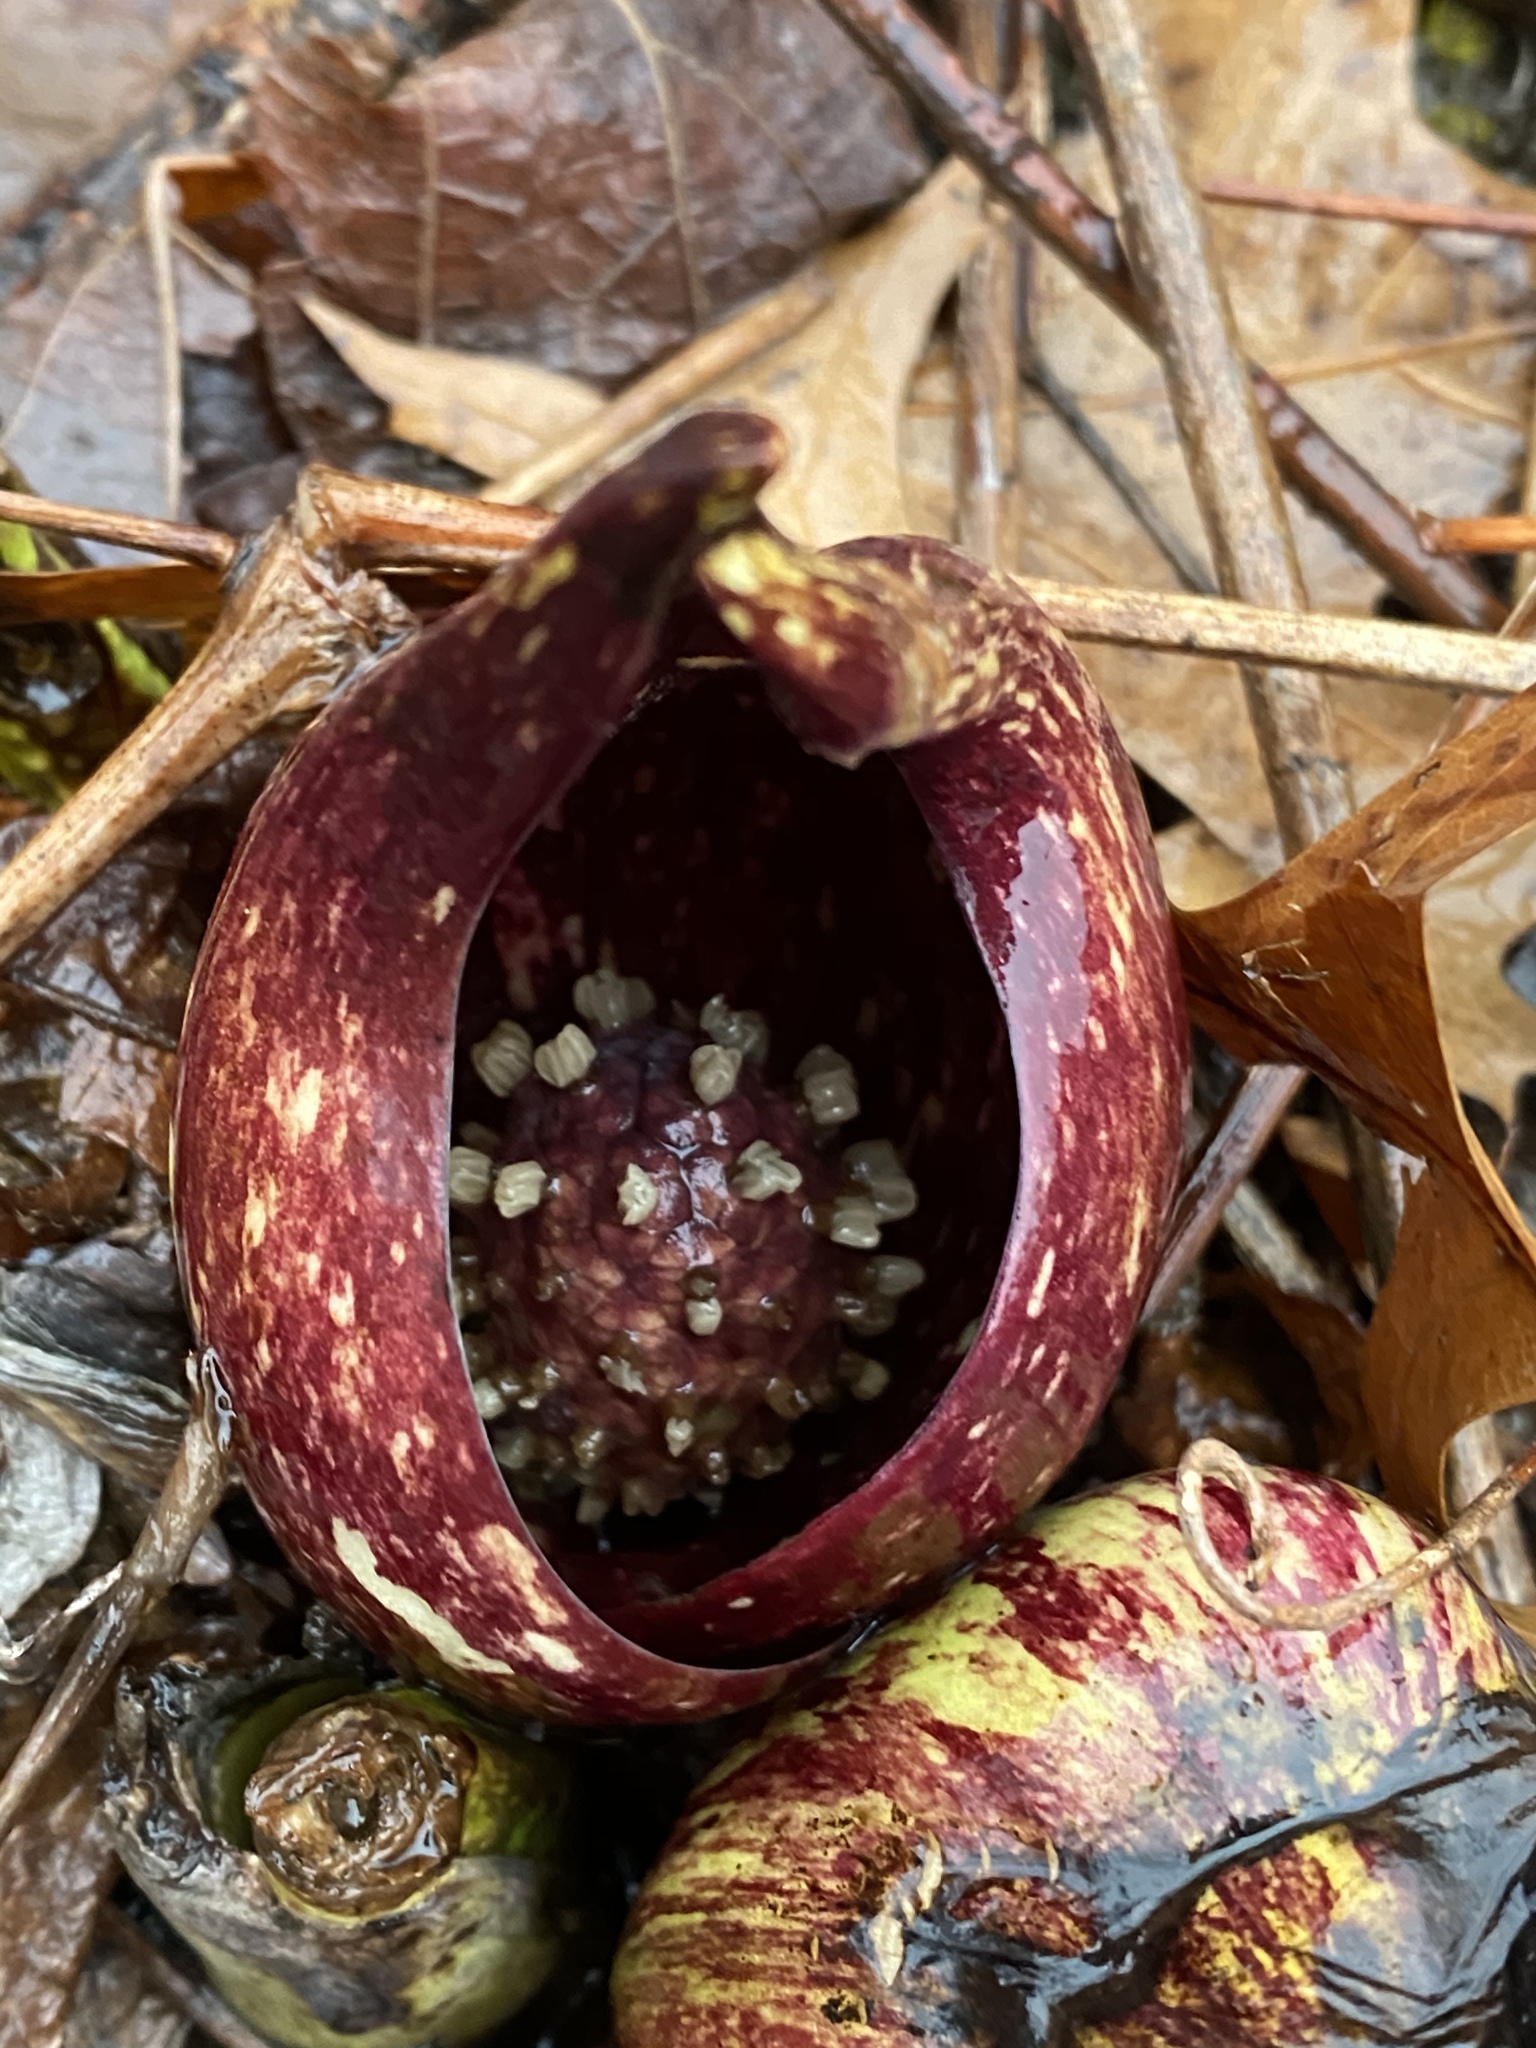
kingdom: Plantae
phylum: Tracheophyta
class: Liliopsida
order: Alismatales
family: Araceae
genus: Symplocarpus
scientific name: Symplocarpus foetidus
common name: Eastern skunk cabbage
